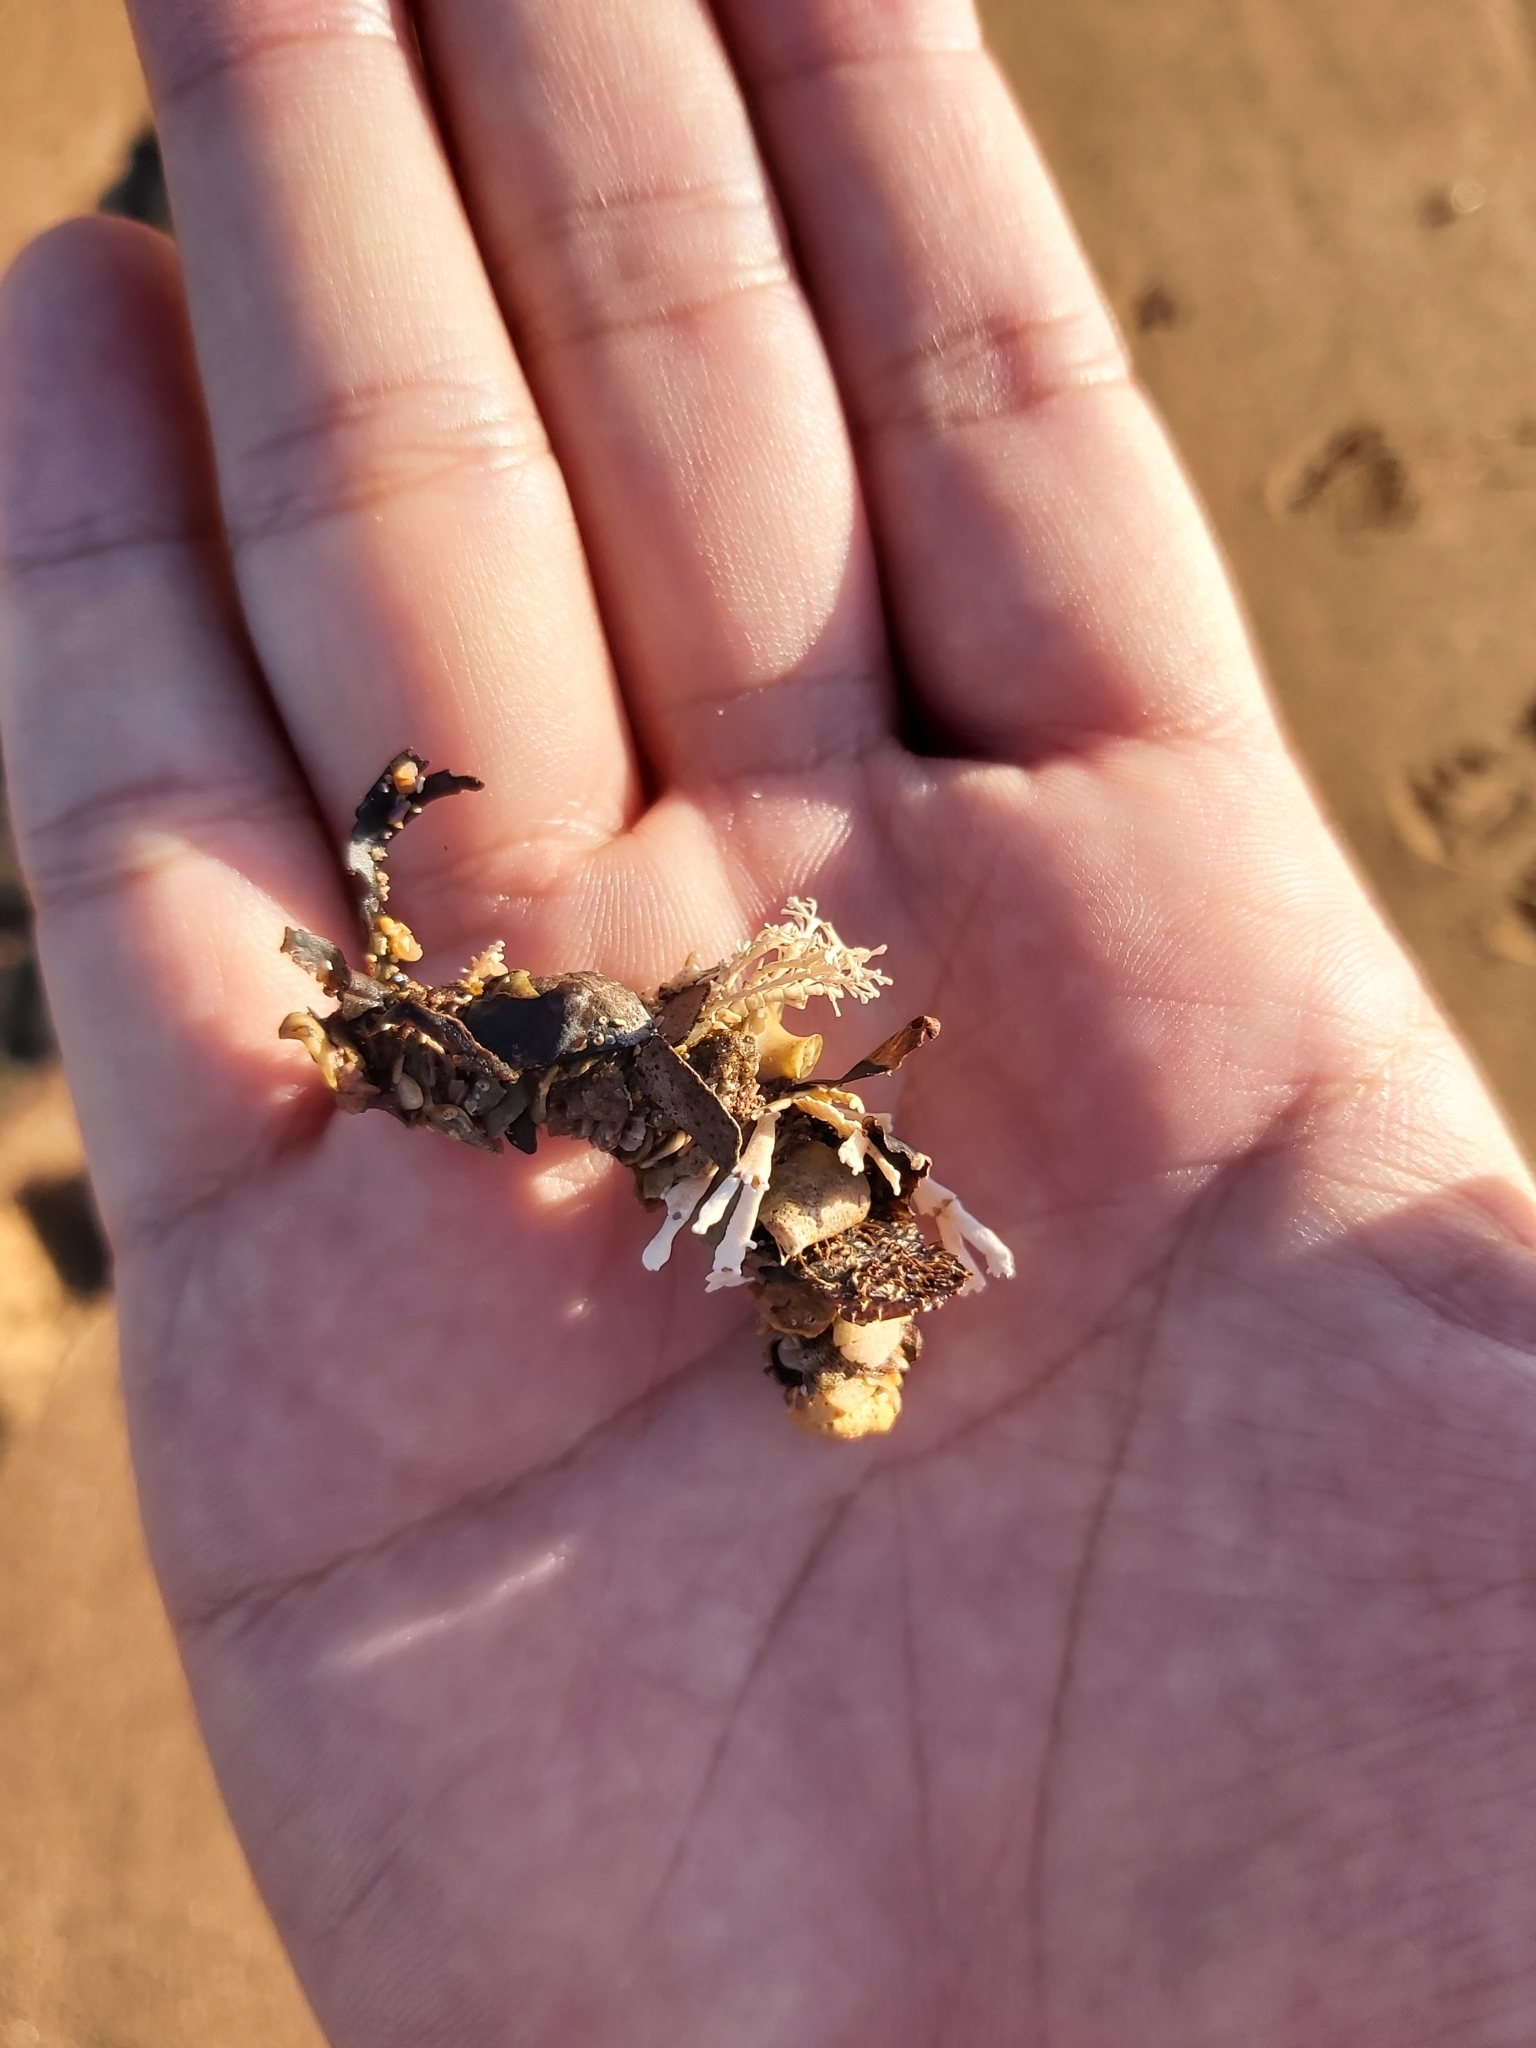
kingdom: Animalia
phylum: Annelida
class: Polychaeta
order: Eunicida
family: Onuphidae
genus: Diopatra
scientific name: Diopatra dentata
